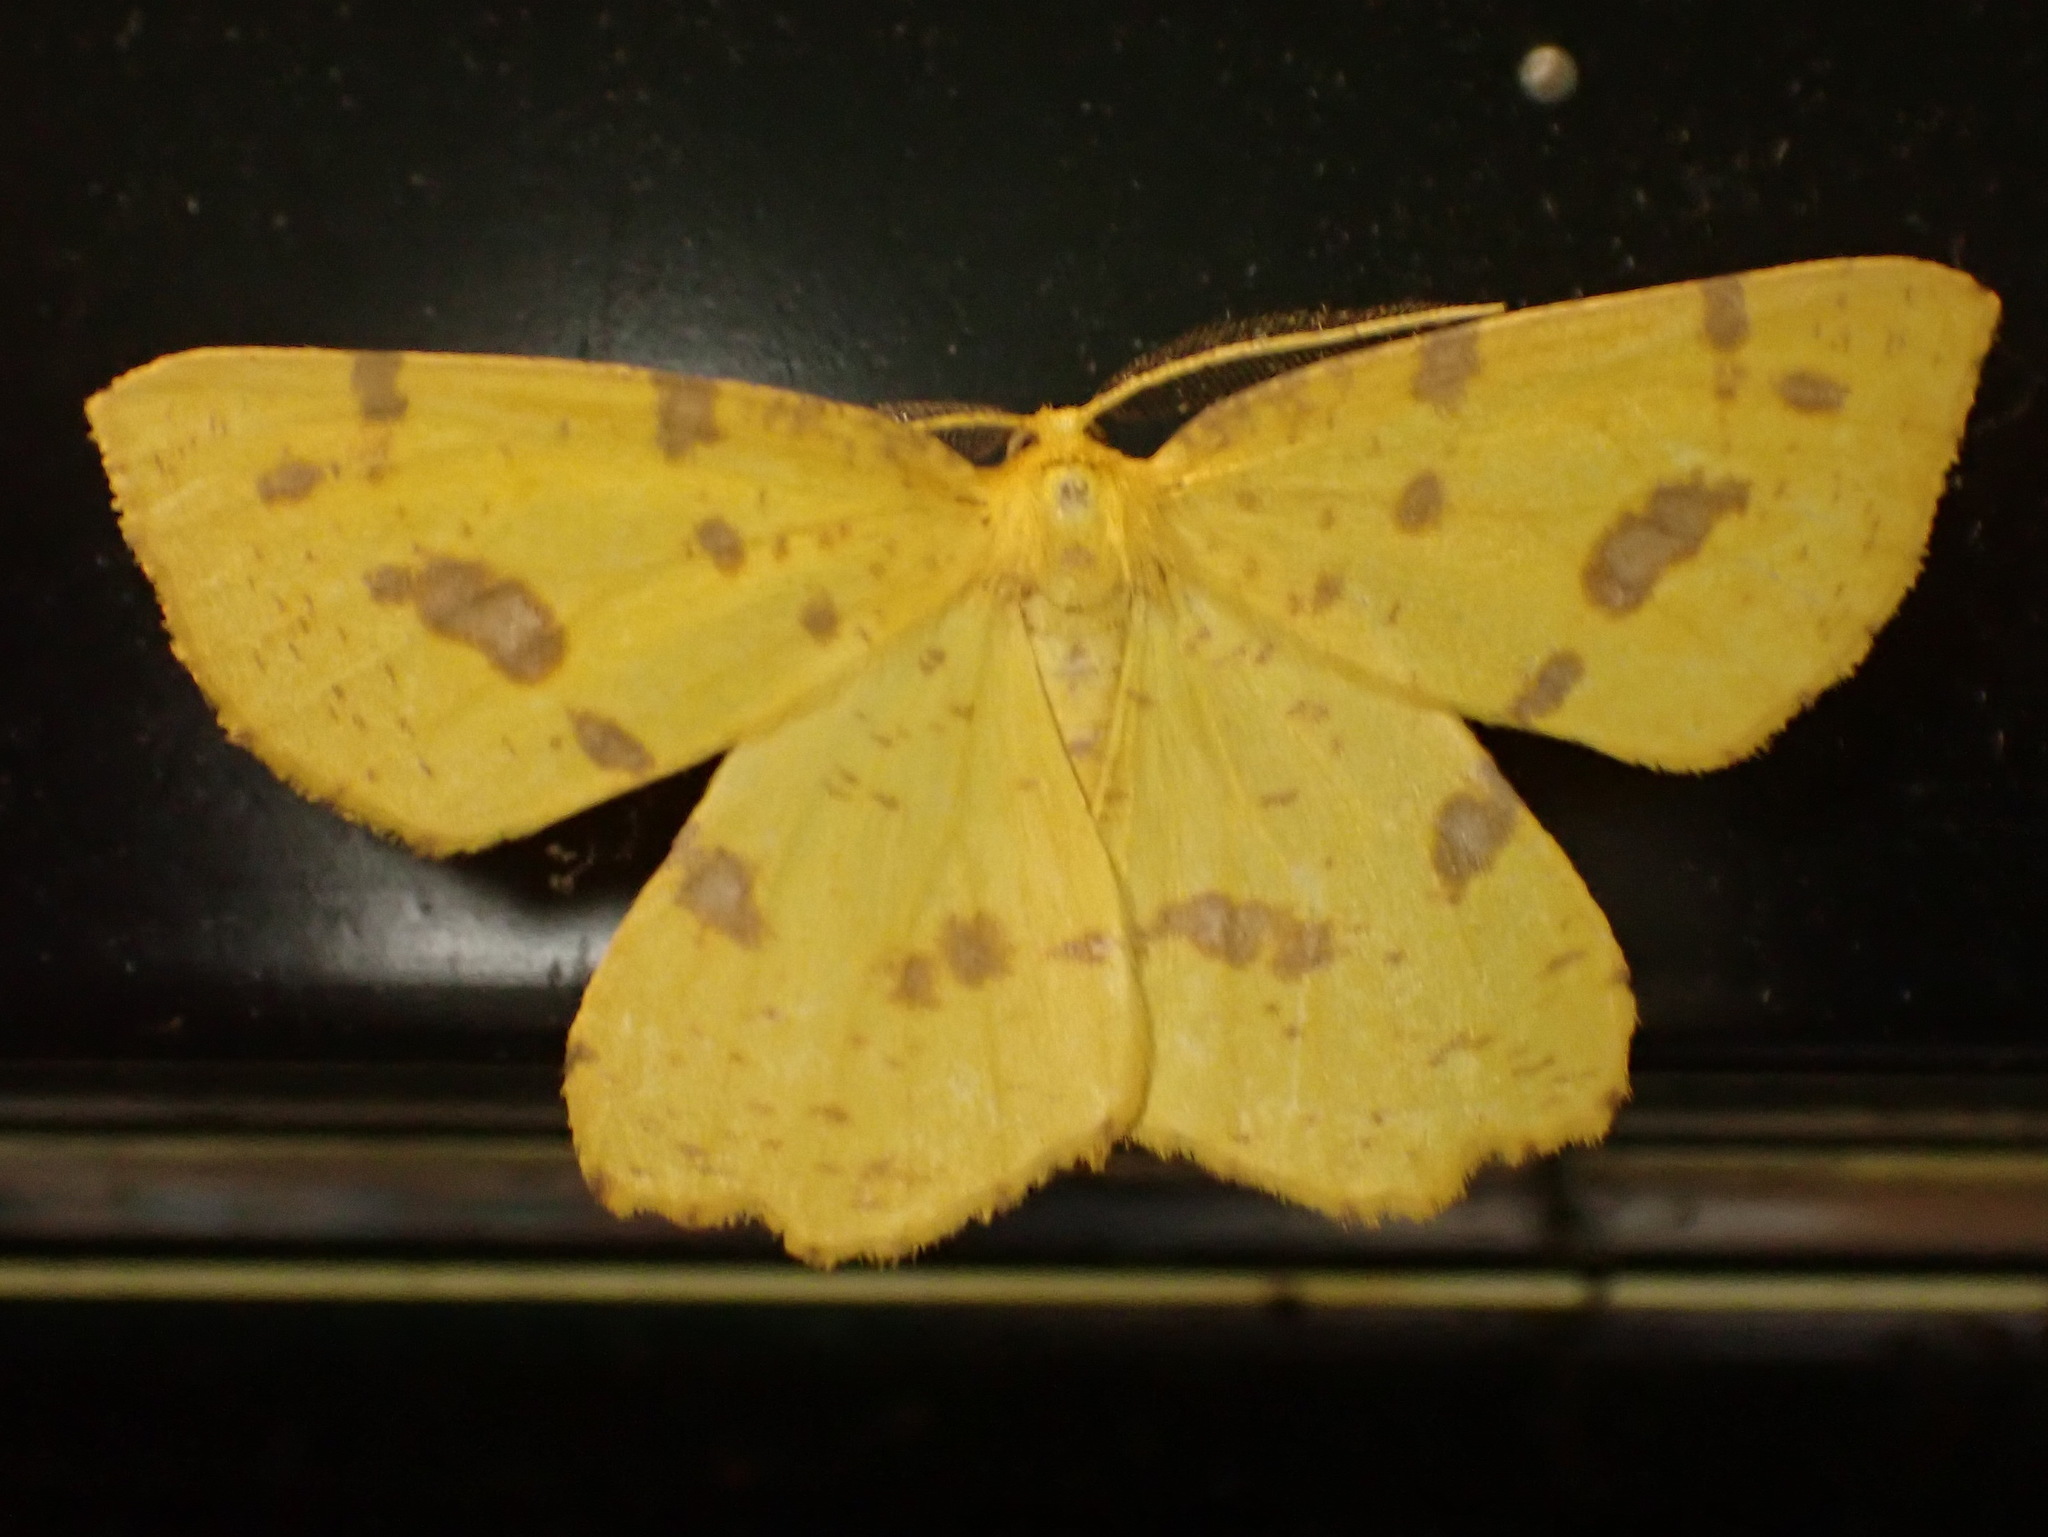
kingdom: Animalia
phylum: Arthropoda
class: Insecta
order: Lepidoptera
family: Geometridae
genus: Xanthotype
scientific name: Xanthotype
